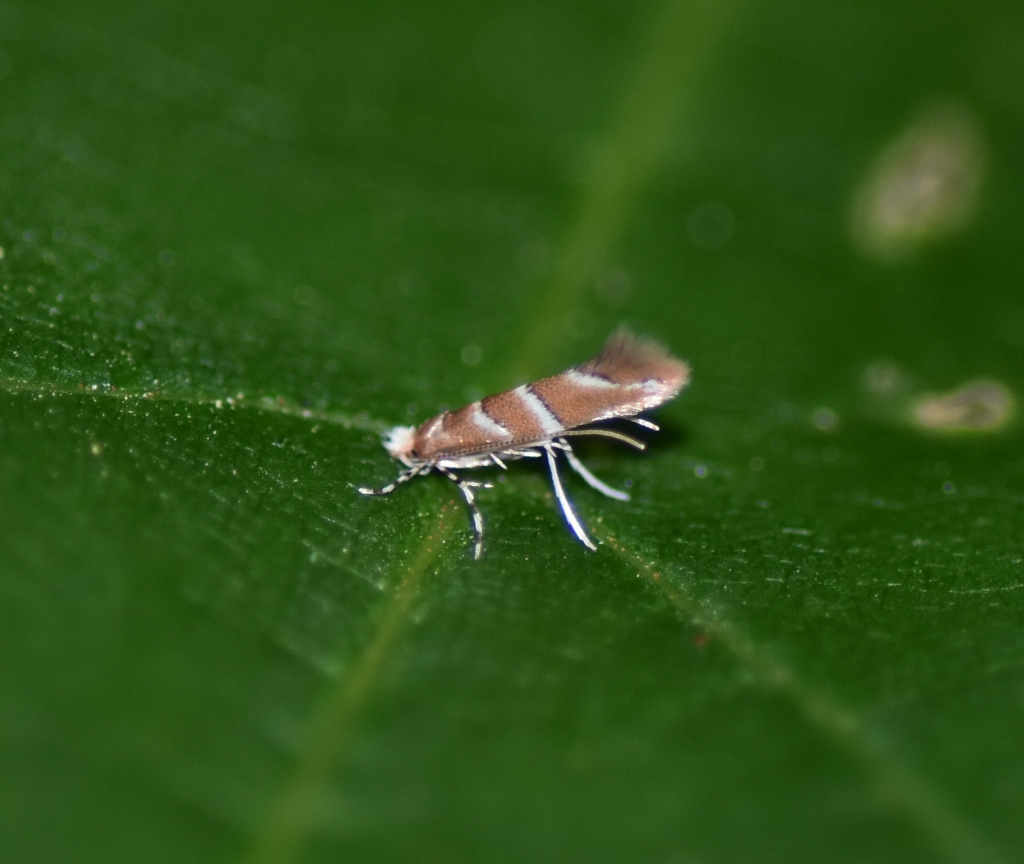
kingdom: Animalia
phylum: Arthropoda
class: Insecta
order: Lepidoptera
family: Gracillariidae
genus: Cameraria
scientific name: Cameraria ostryarella
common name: Hophornbeam blotchminer
